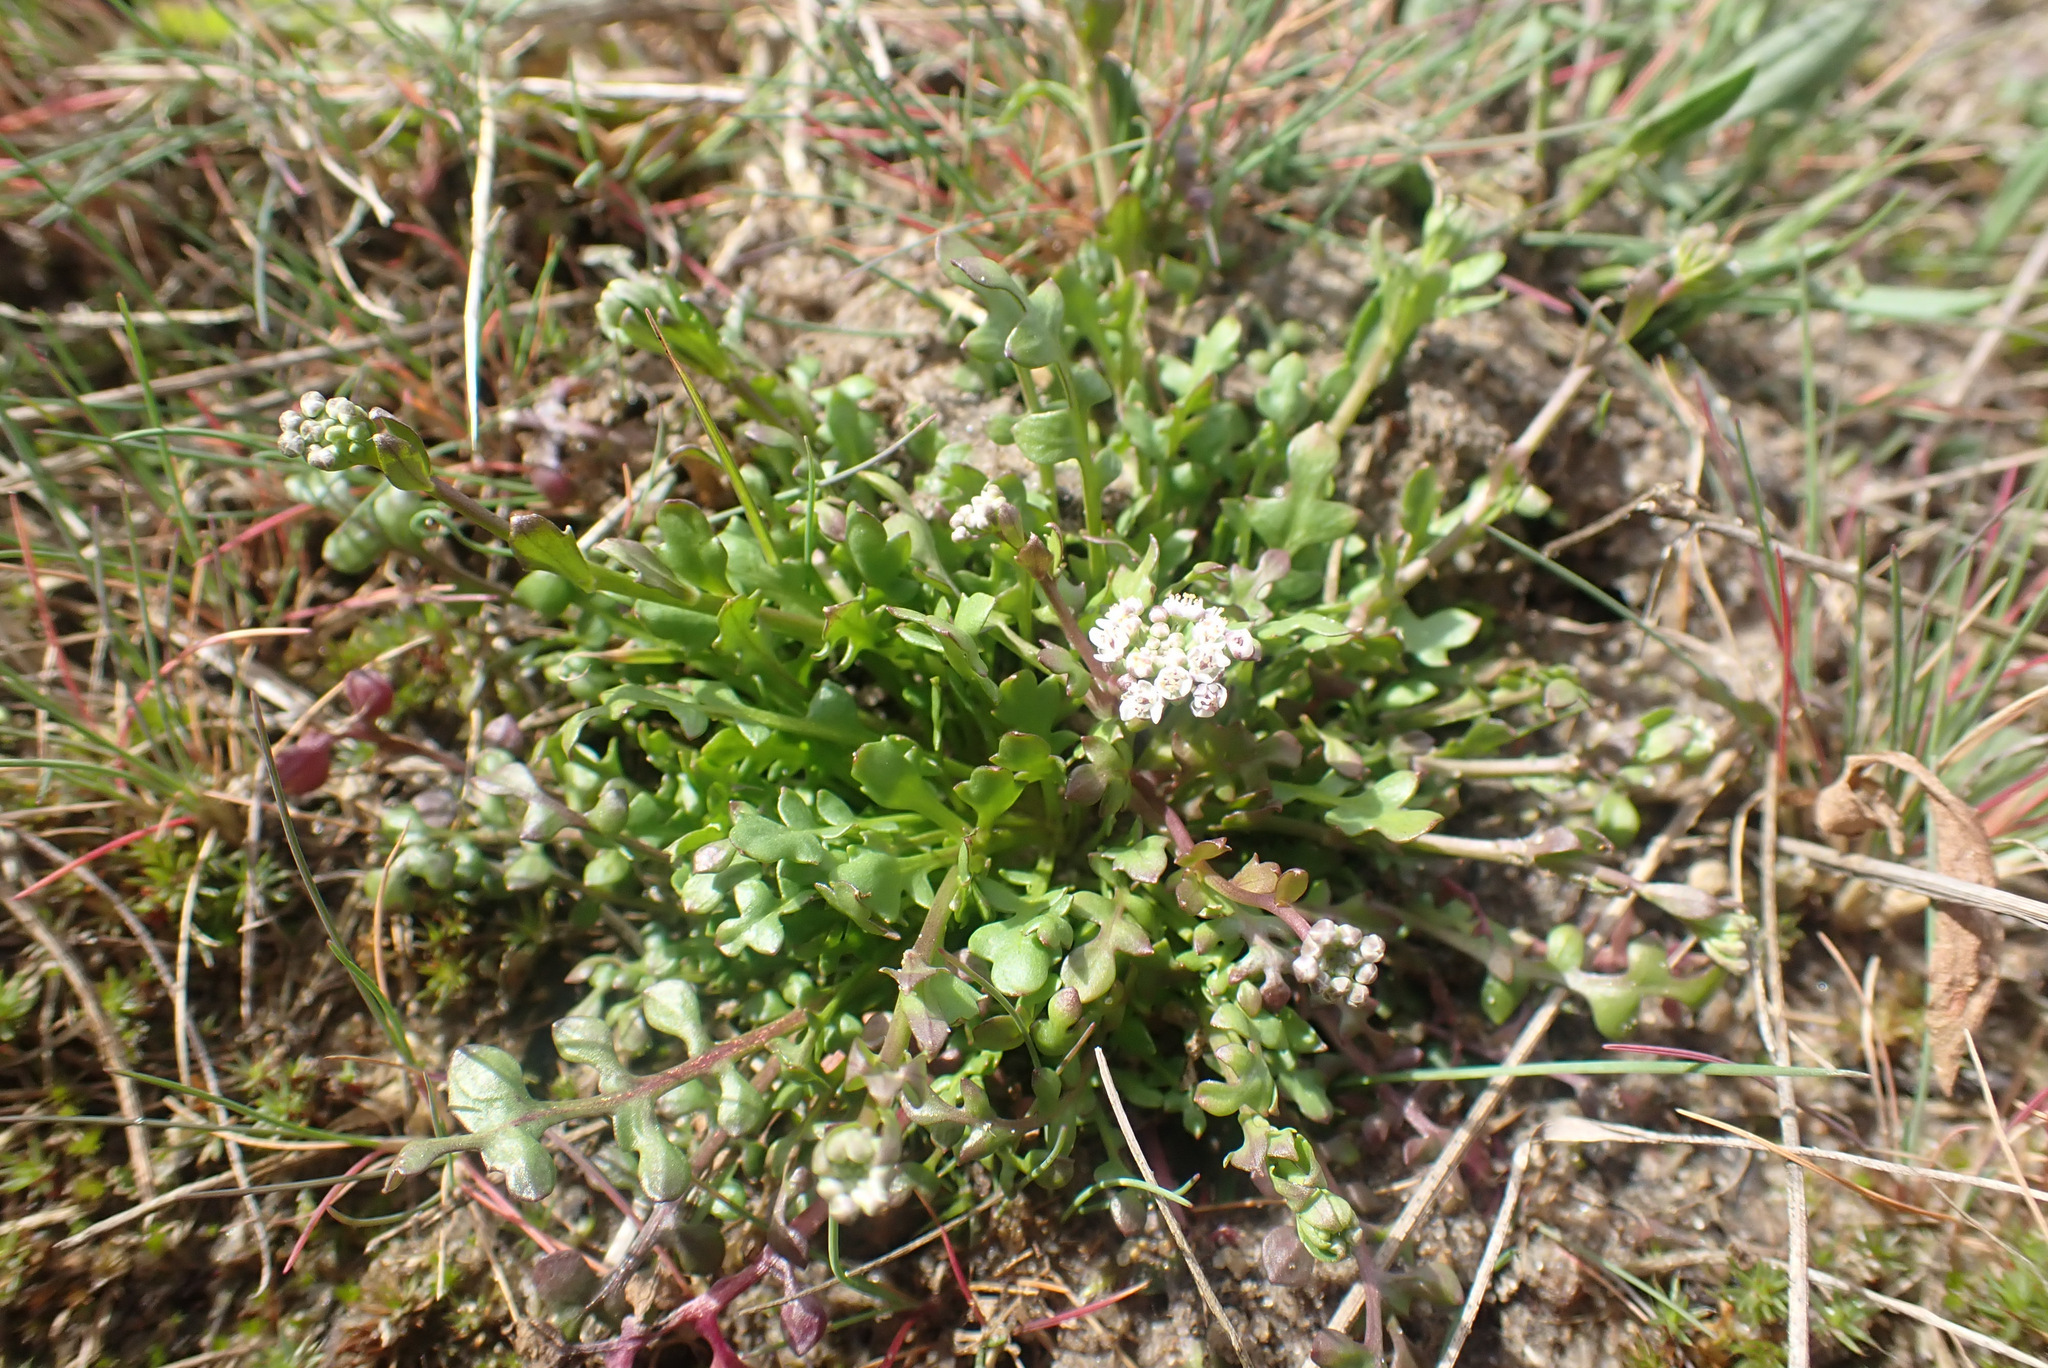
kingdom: Plantae
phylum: Tracheophyta
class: Magnoliopsida
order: Brassicales
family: Brassicaceae
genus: Teesdalia
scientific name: Teesdalia nudicaulis
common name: Shepherd's cress
